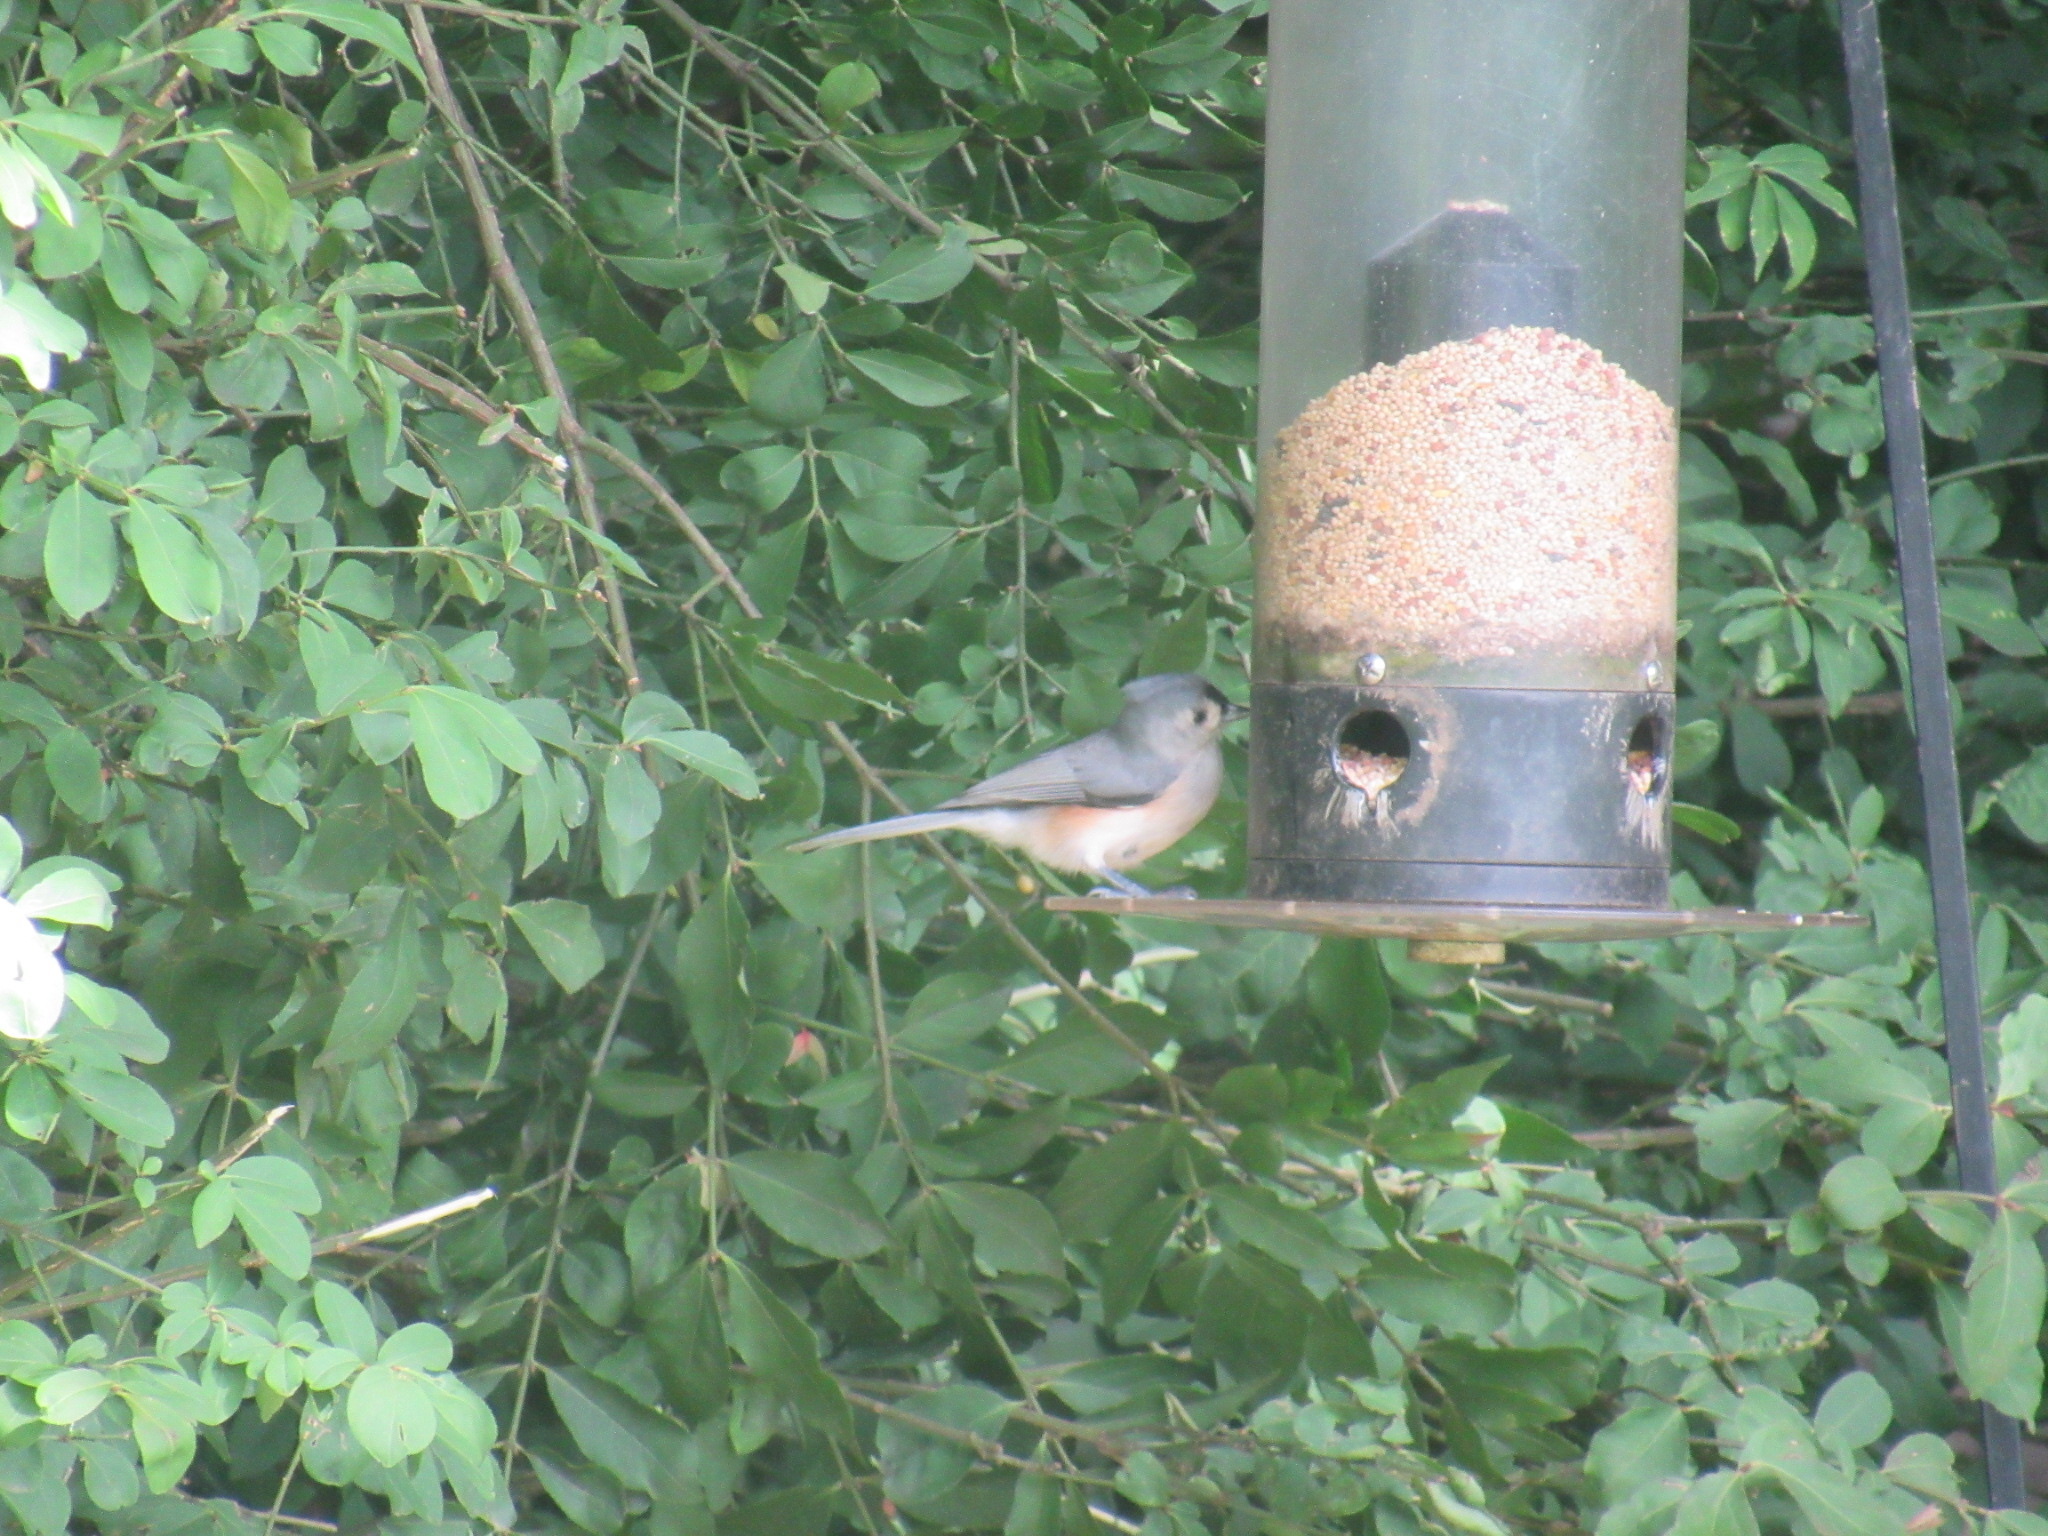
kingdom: Animalia
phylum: Chordata
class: Aves
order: Passeriformes
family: Paridae
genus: Baeolophus
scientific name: Baeolophus bicolor
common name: Tufted titmouse
